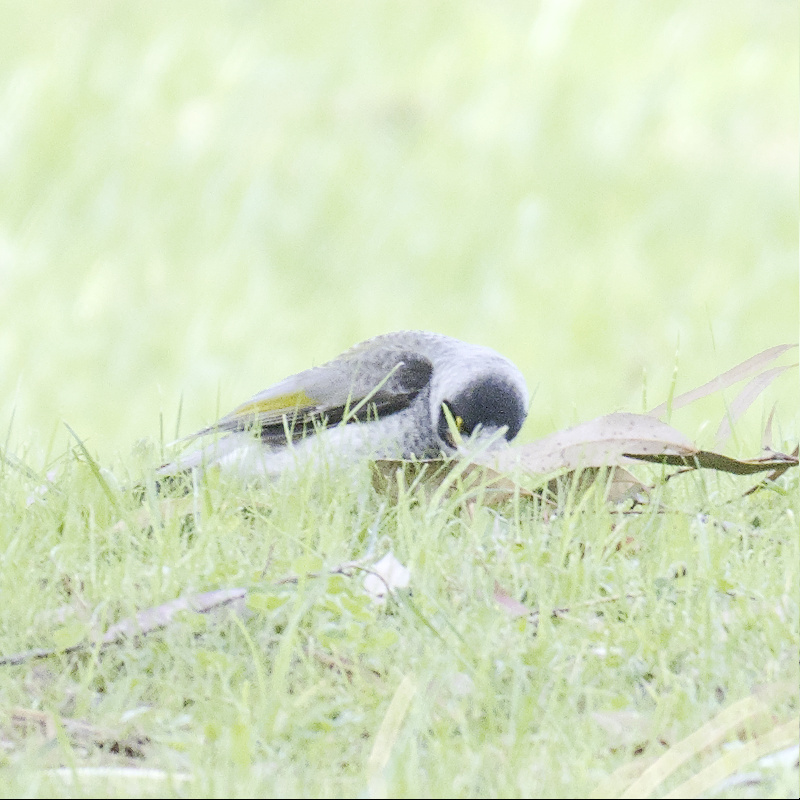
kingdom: Animalia
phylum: Chordata
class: Aves
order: Passeriformes
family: Meliphagidae
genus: Manorina
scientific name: Manorina melanocephala
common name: Noisy miner
